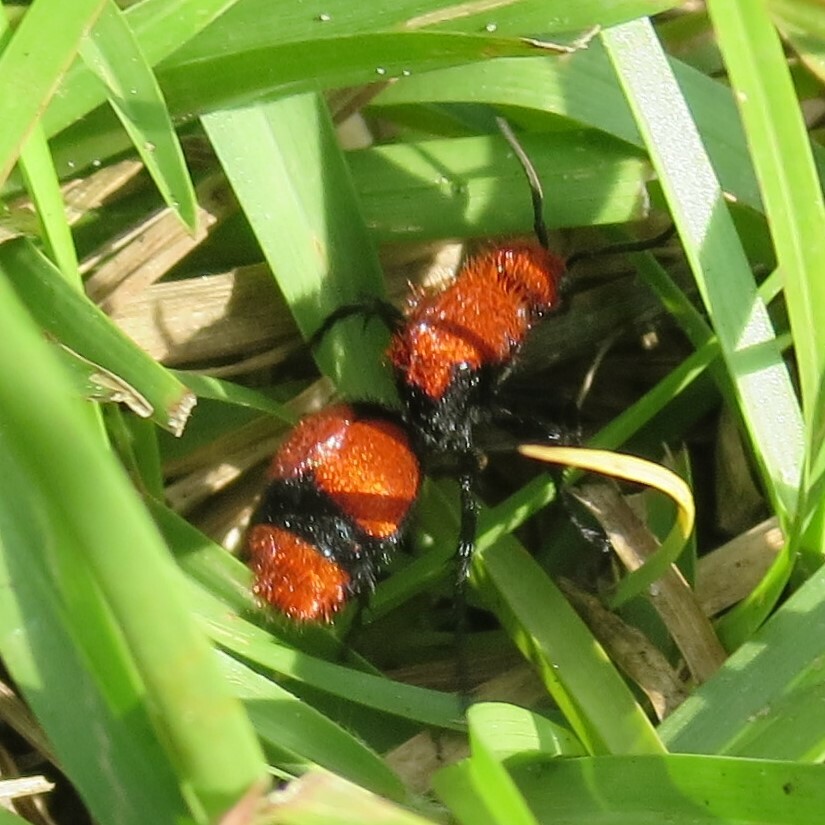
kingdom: Animalia
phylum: Arthropoda
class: Insecta
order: Hymenoptera
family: Mutillidae
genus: Dasymutilla
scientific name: Dasymutilla occidentalis
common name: Common eastern velvet ant
